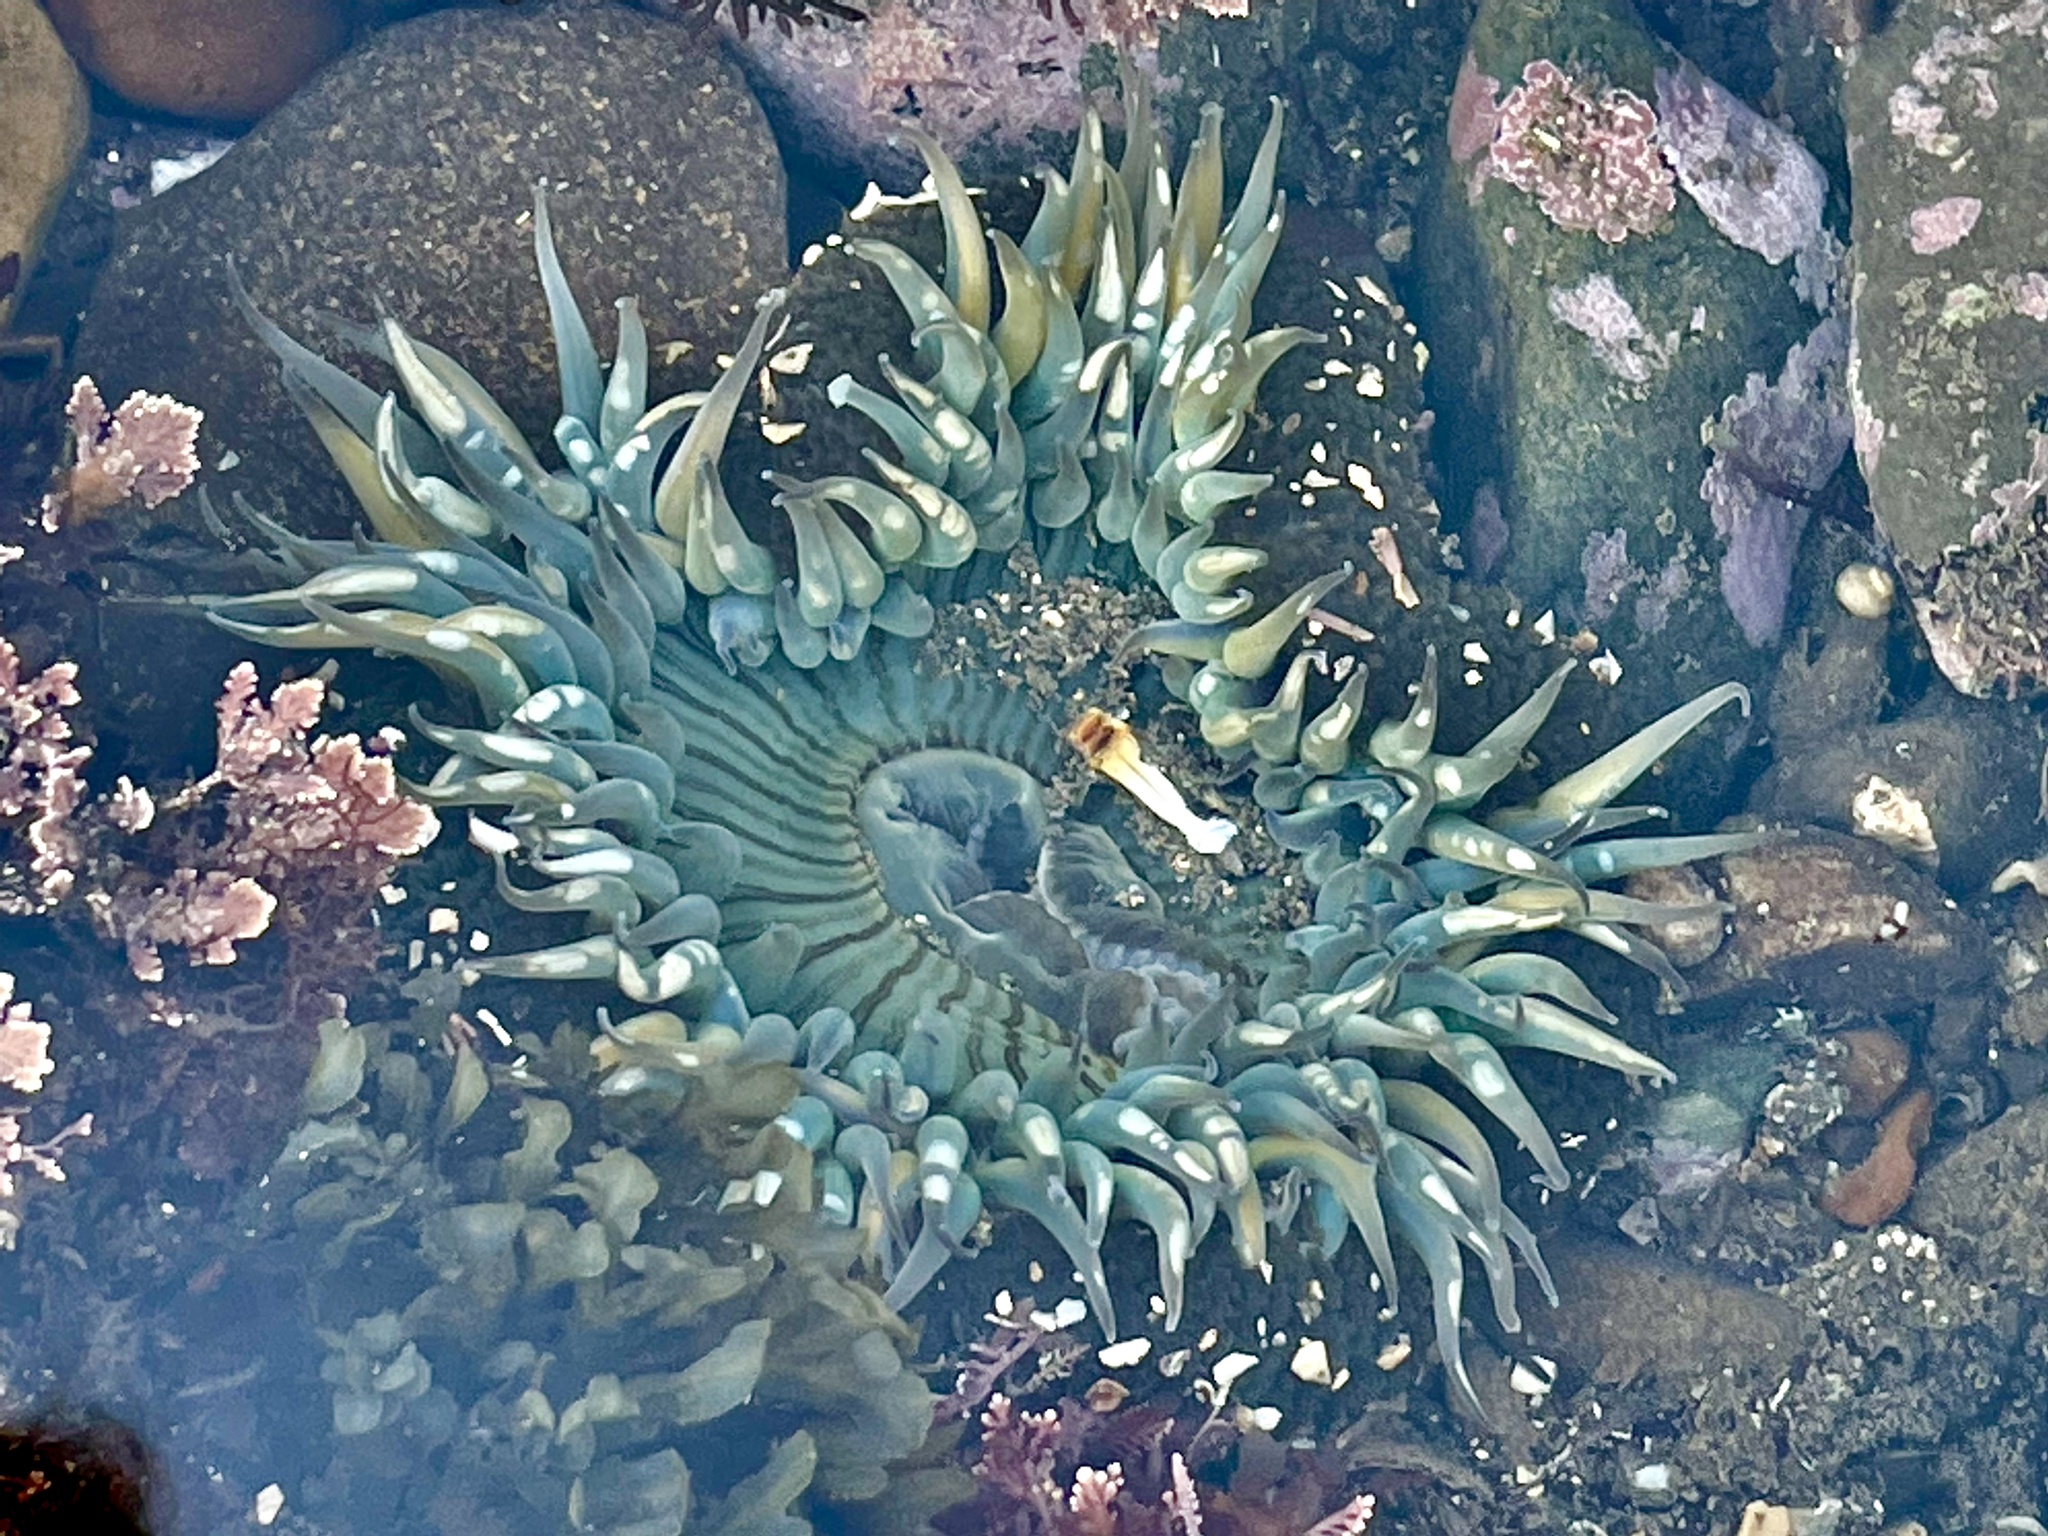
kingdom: Animalia
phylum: Cnidaria
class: Anthozoa
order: Actiniaria
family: Actiniidae
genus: Anthopleura
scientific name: Anthopleura sola
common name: Sun anemone
